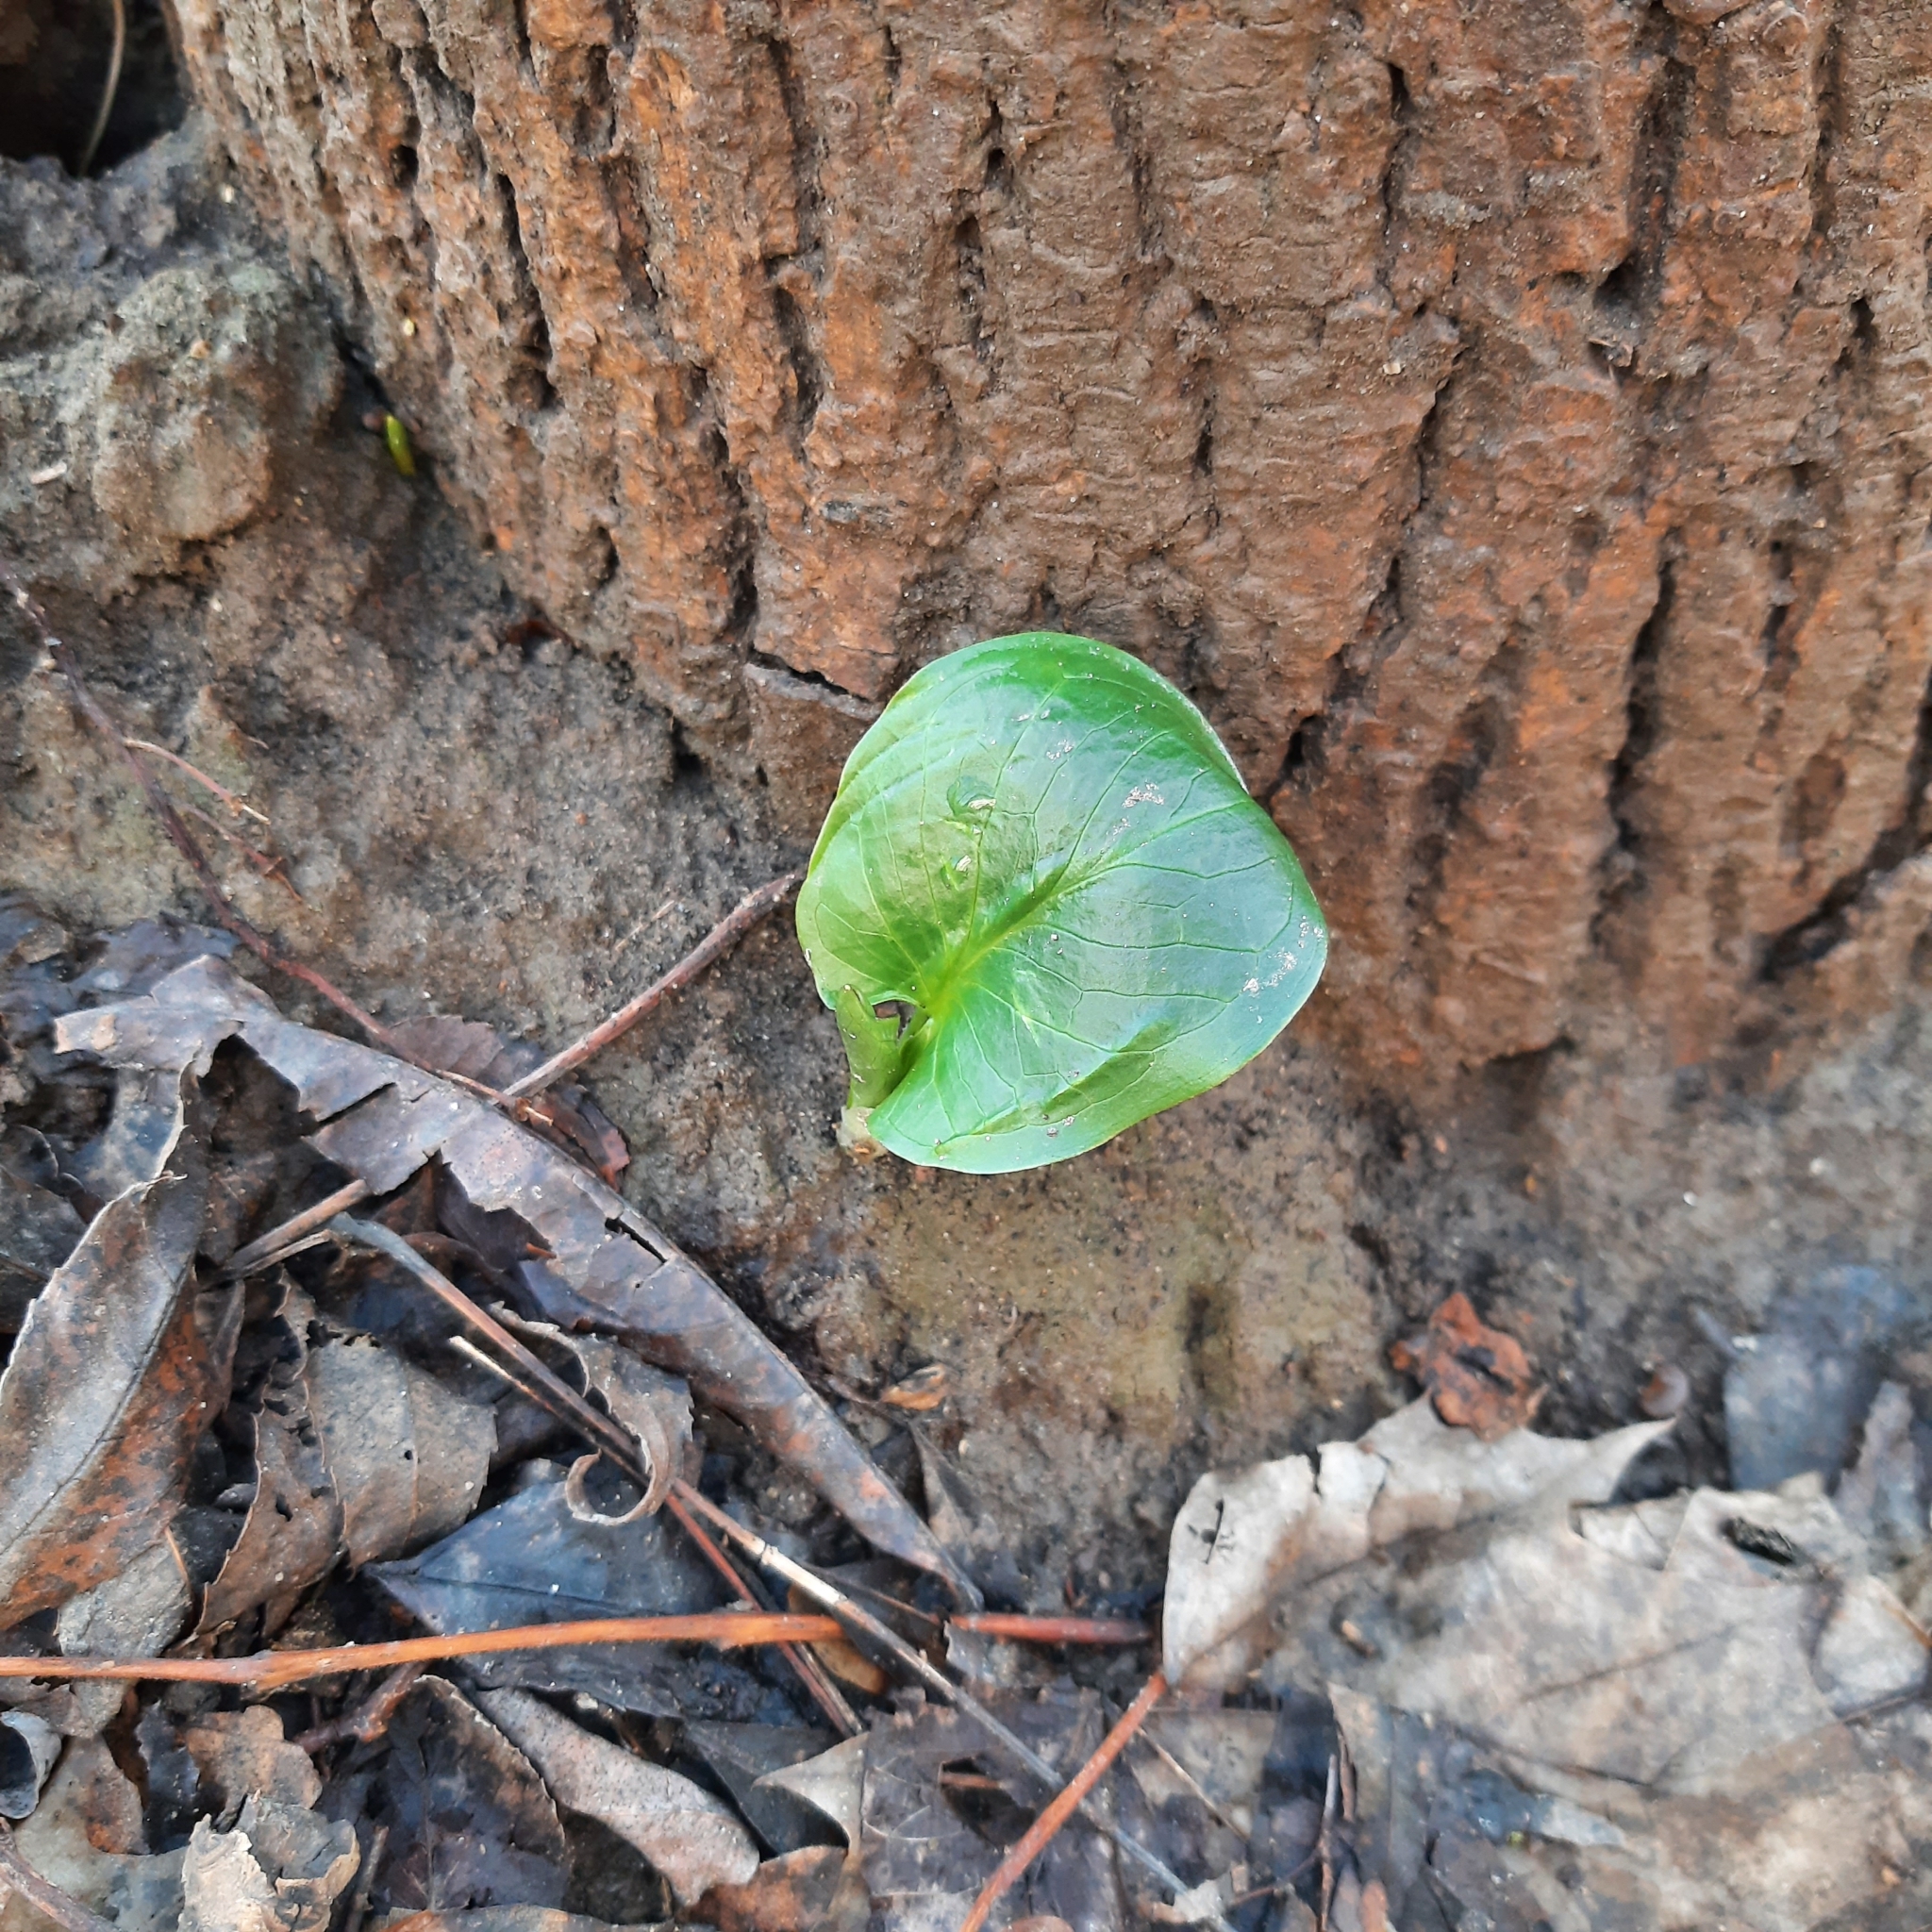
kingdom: Plantae
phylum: Tracheophyta
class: Liliopsida
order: Alismatales
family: Araceae
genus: Arum
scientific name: Arum cylindraceum
